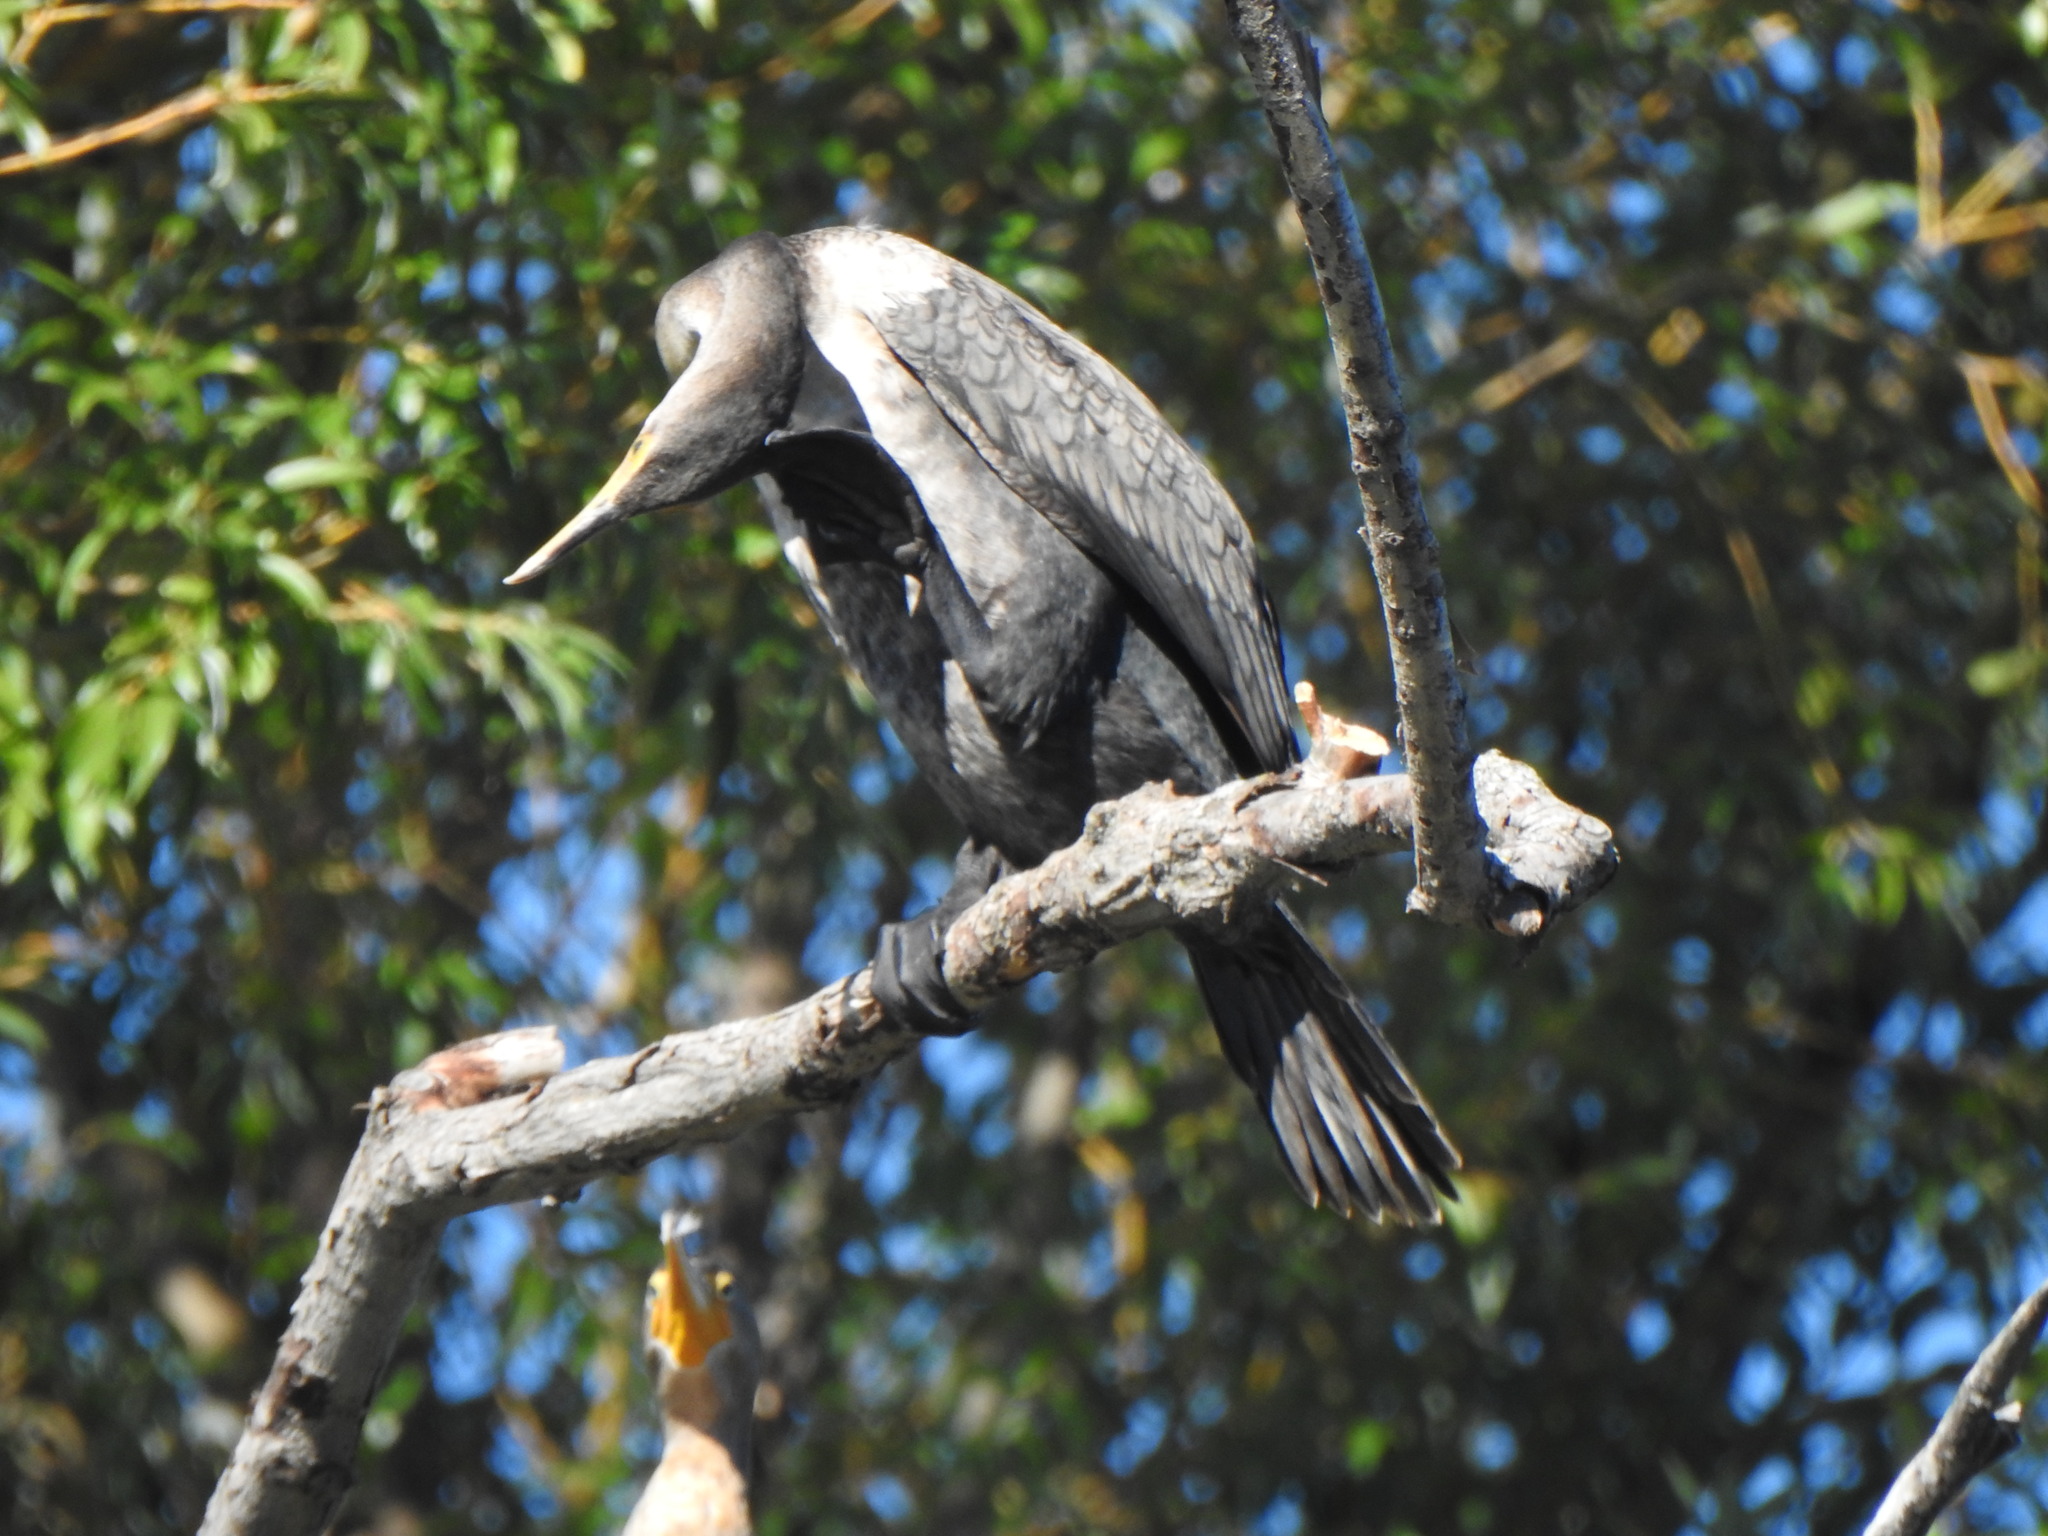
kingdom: Animalia
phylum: Chordata
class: Aves
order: Suliformes
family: Phalacrocoracidae
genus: Phalacrocorax
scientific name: Phalacrocorax auritus
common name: Double-crested cormorant
